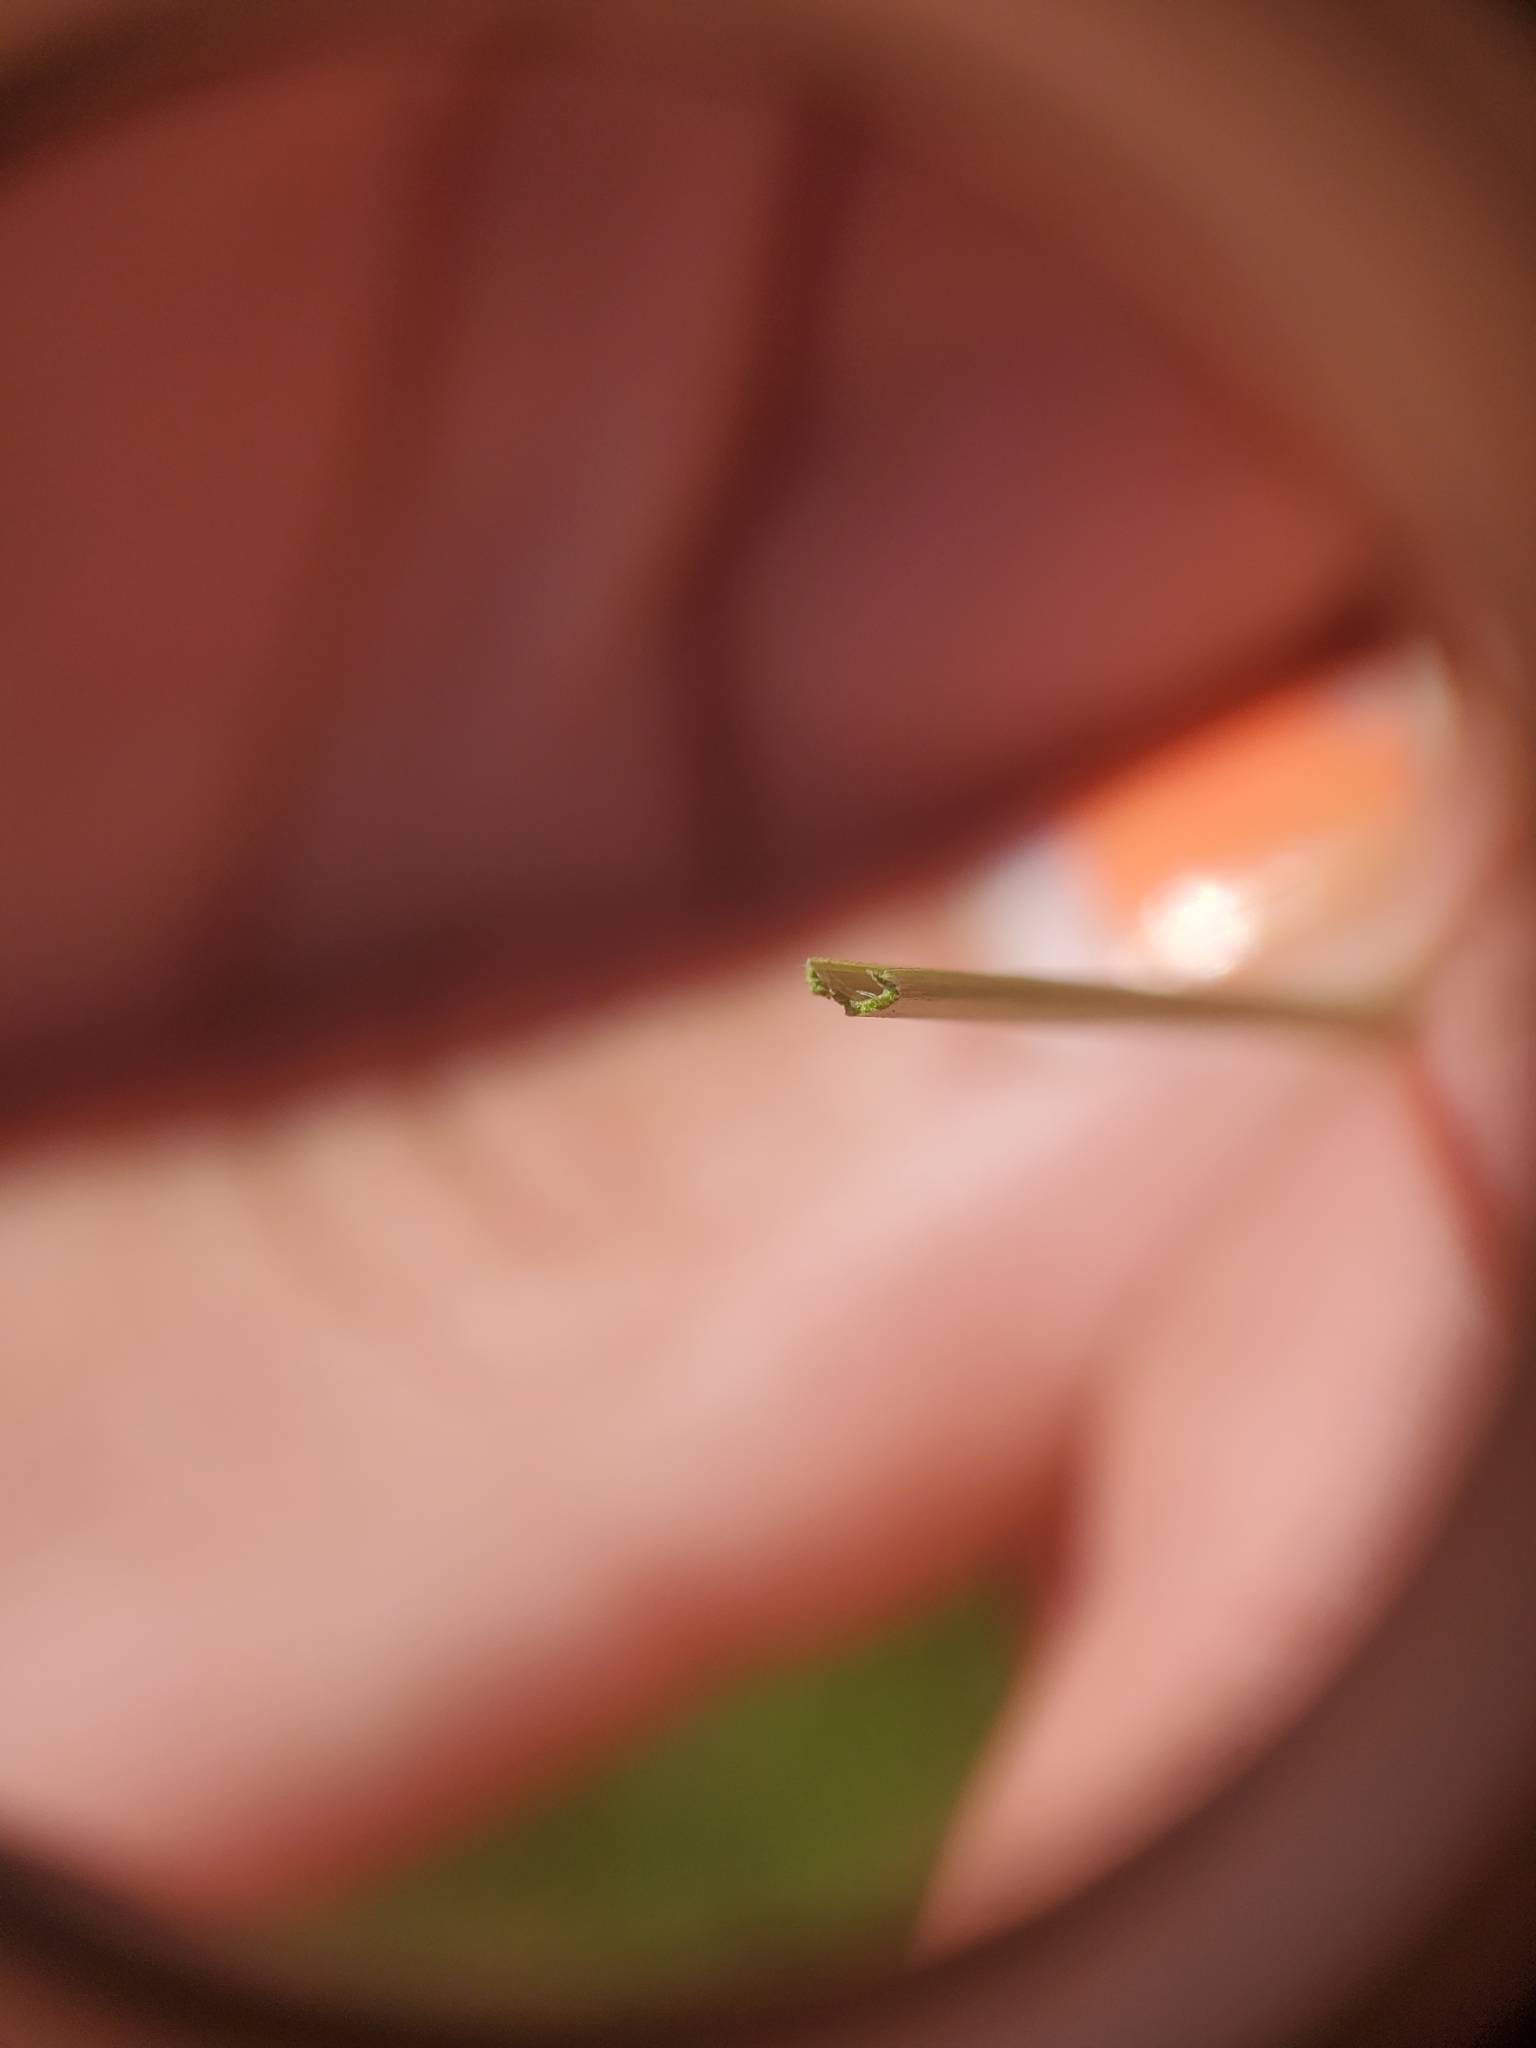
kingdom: Plantae
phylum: Tracheophyta
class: Liliopsida
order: Poales
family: Cyperaceae
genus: Carex
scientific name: Carex lasiocarpa
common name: Slender sedge
